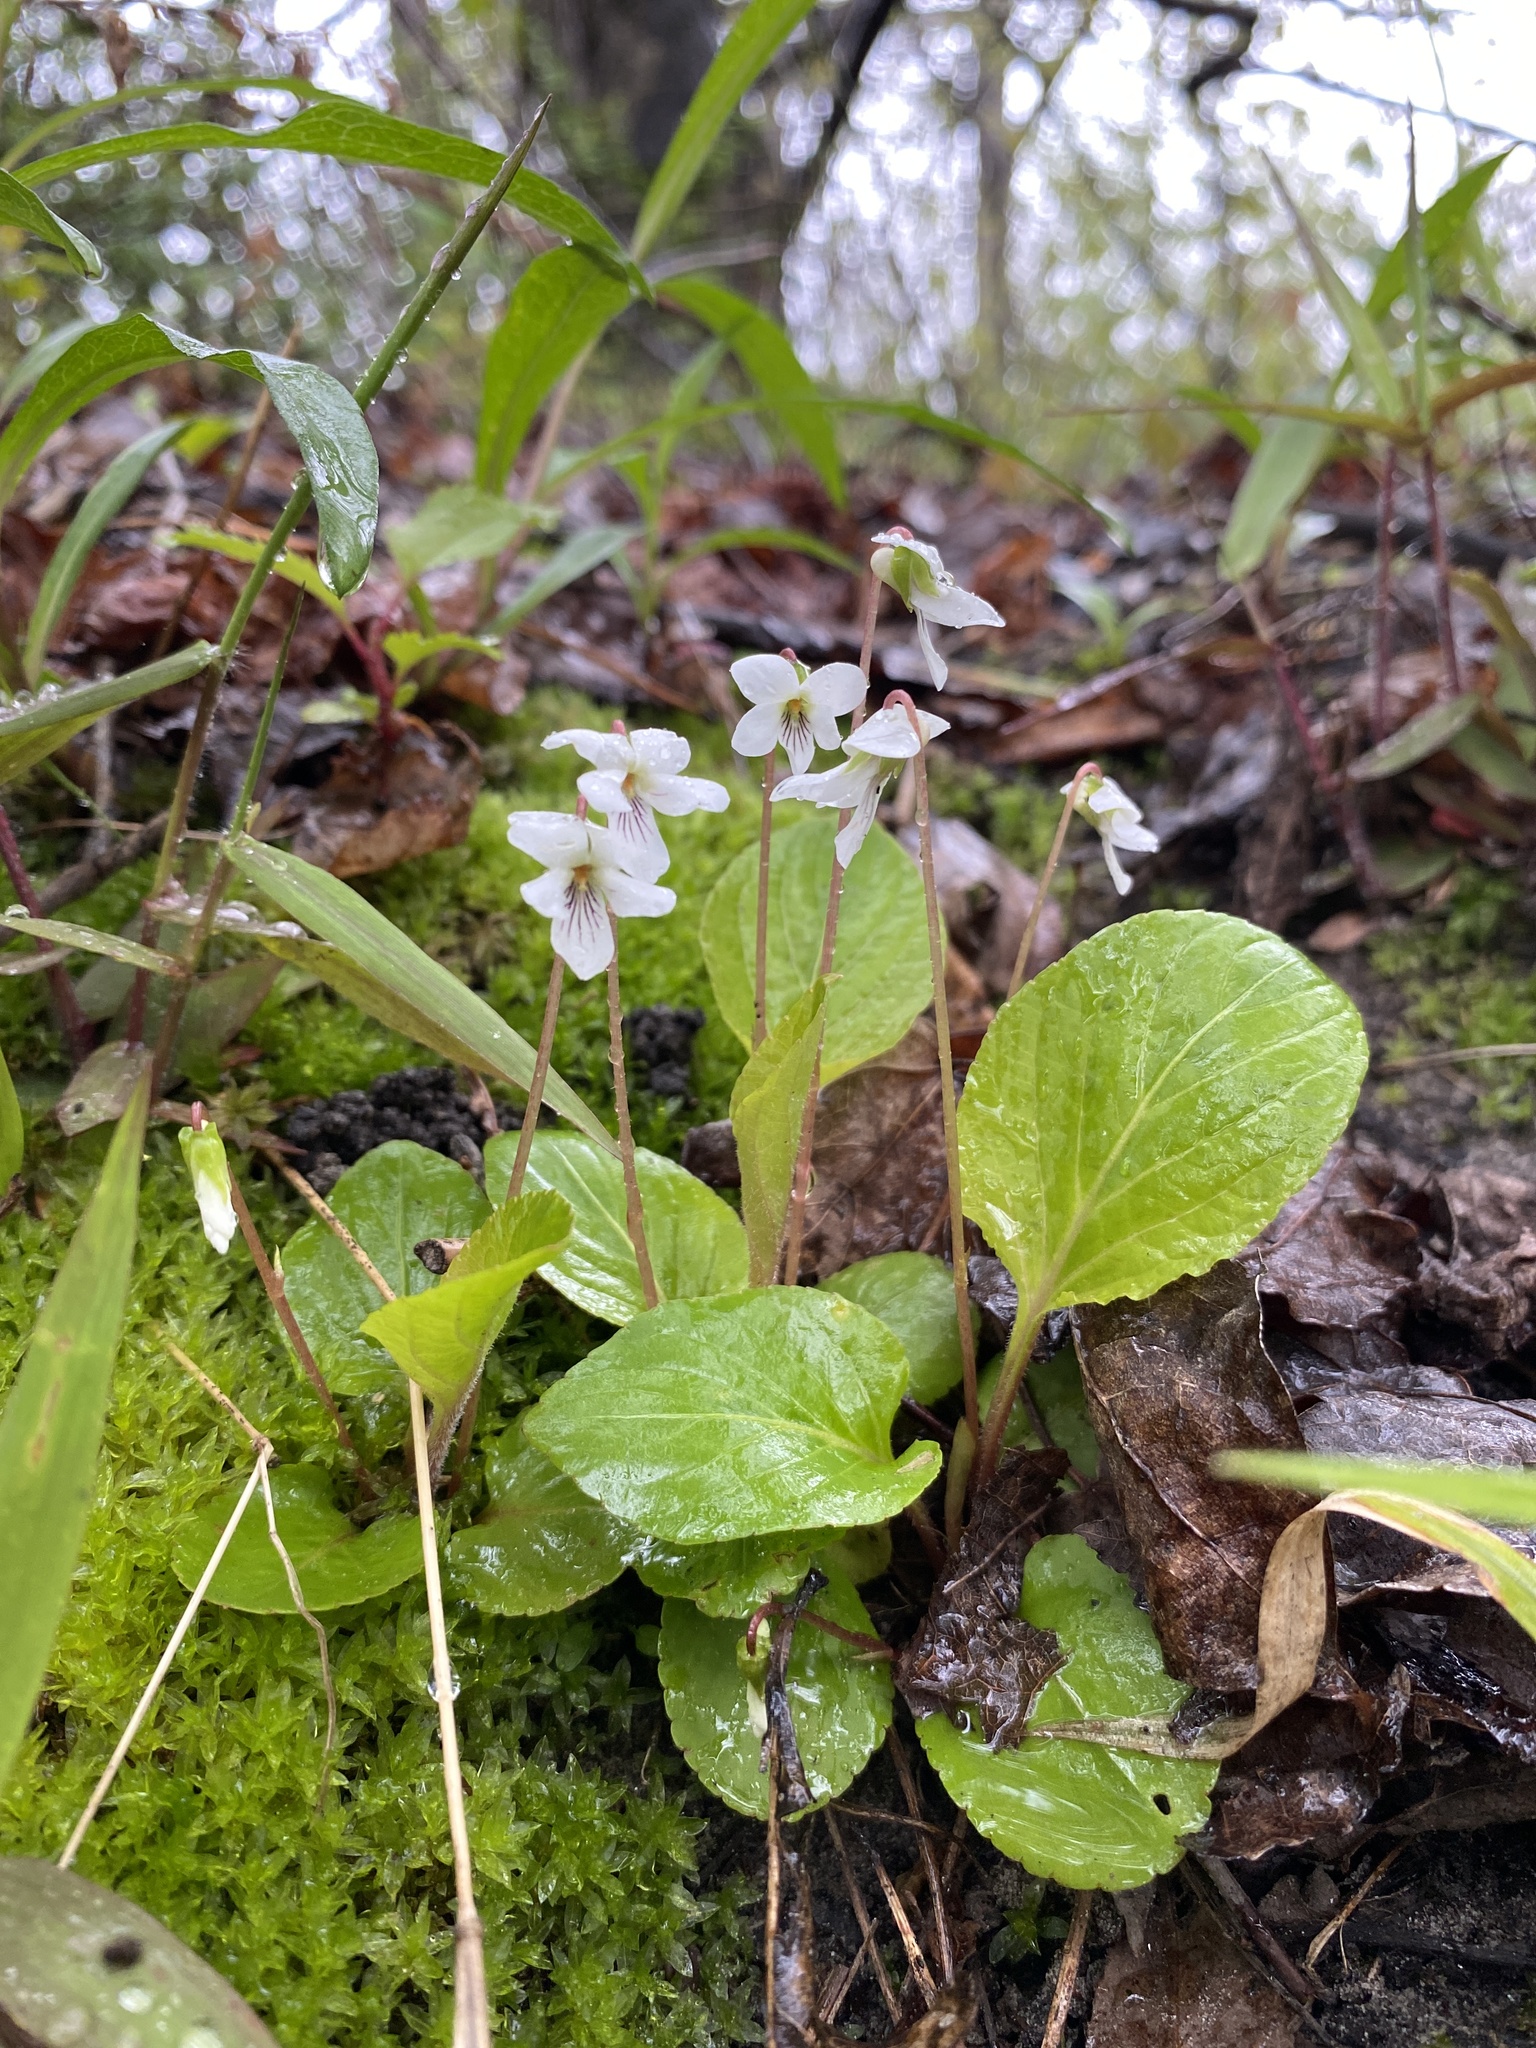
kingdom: Plantae
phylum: Tracheophyta
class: Magnoliopsida
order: Malpighiales
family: Violaceae
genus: Viola
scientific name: Viola primulifolia
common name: Primrose-leaf violet
